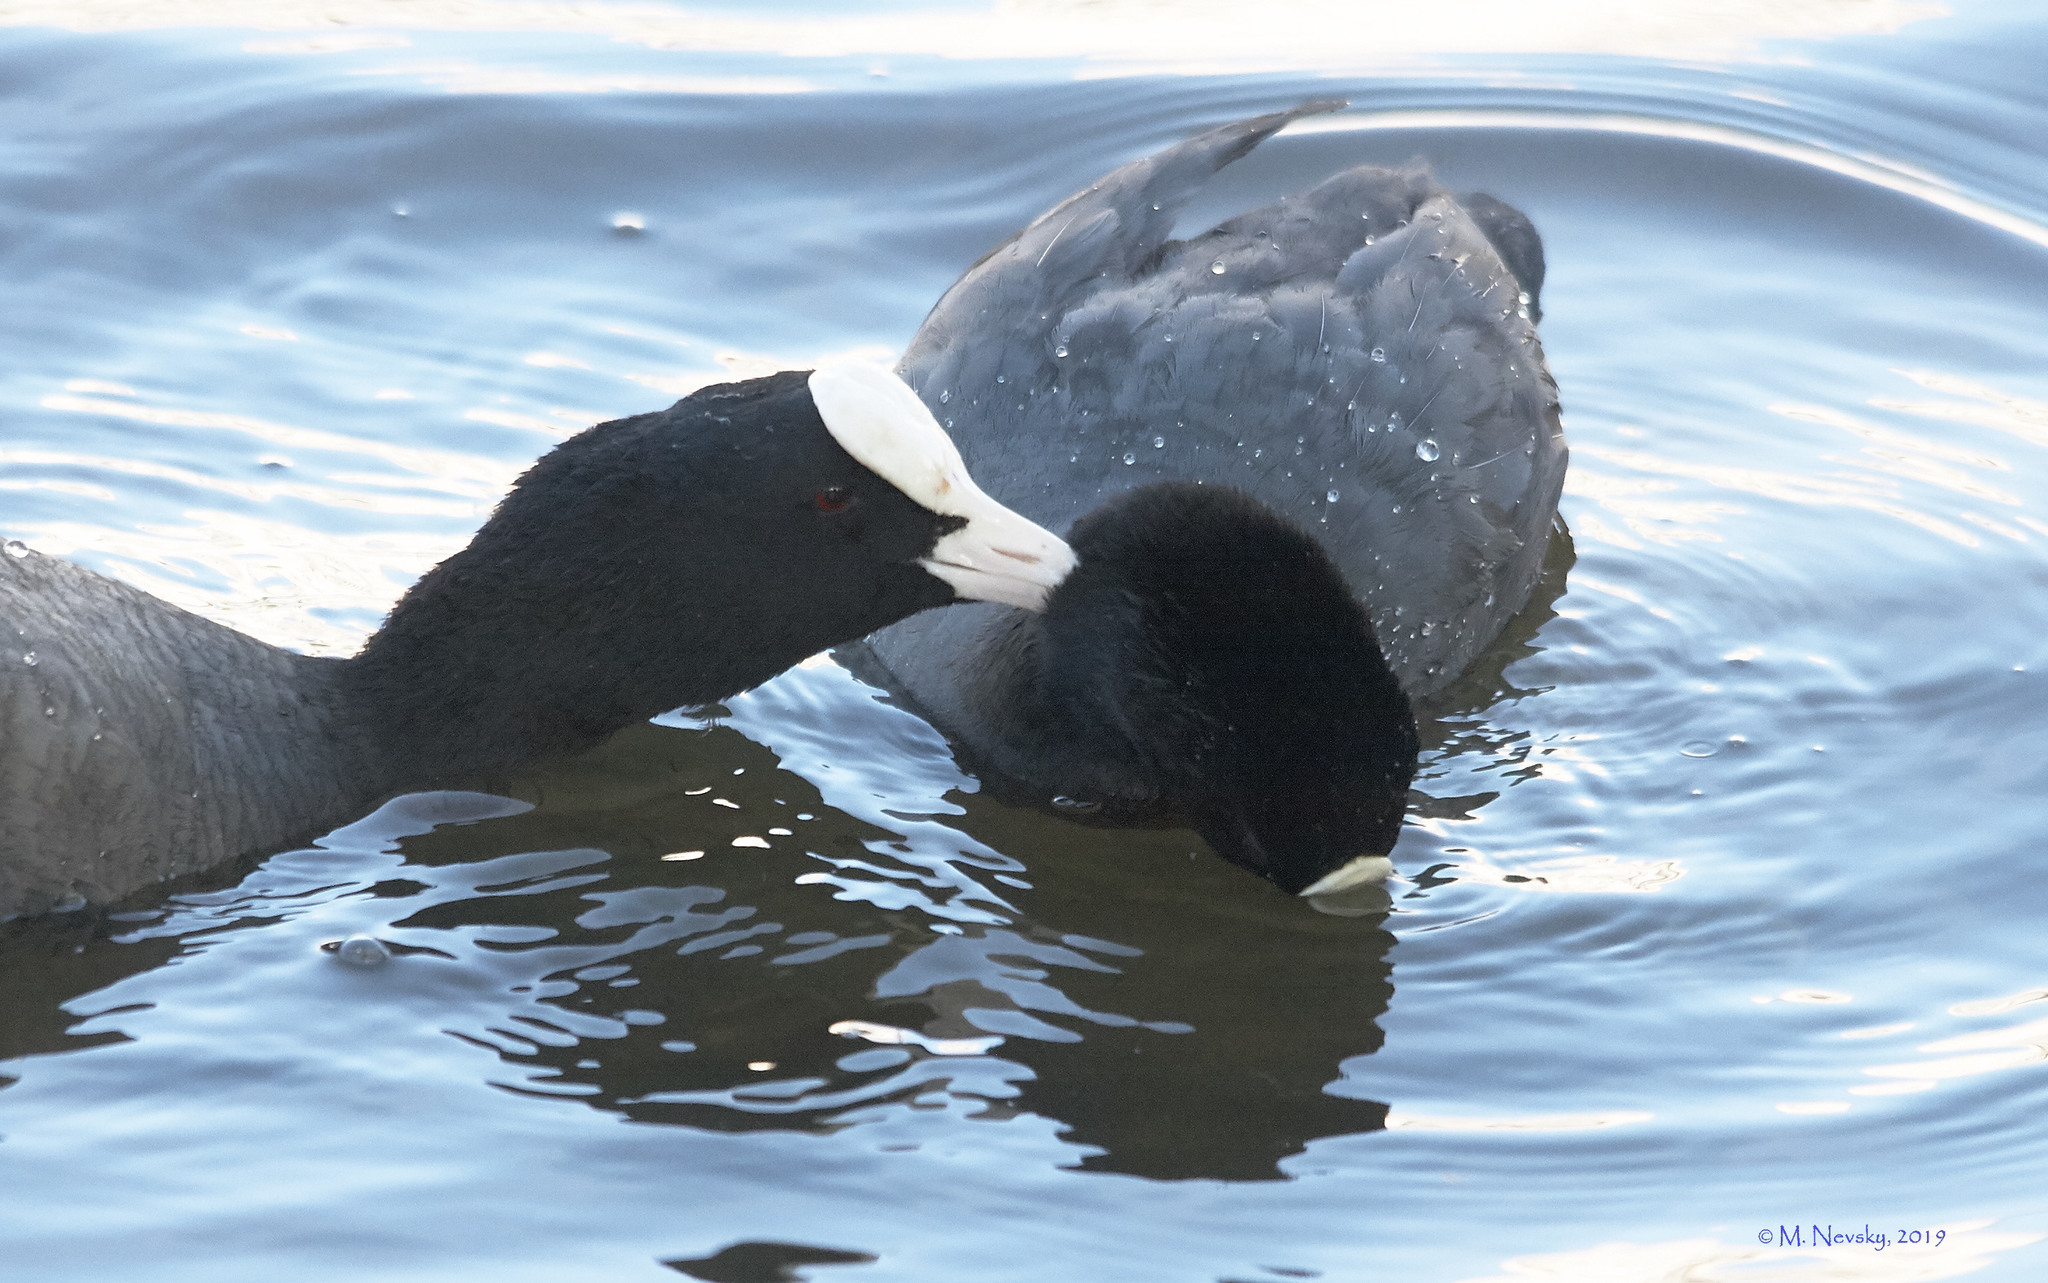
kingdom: Animalia
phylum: Chordata
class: Aves
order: Gruiformes
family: Rallidae
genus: Fulica
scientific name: Fulica atra
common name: Eurasian coot
